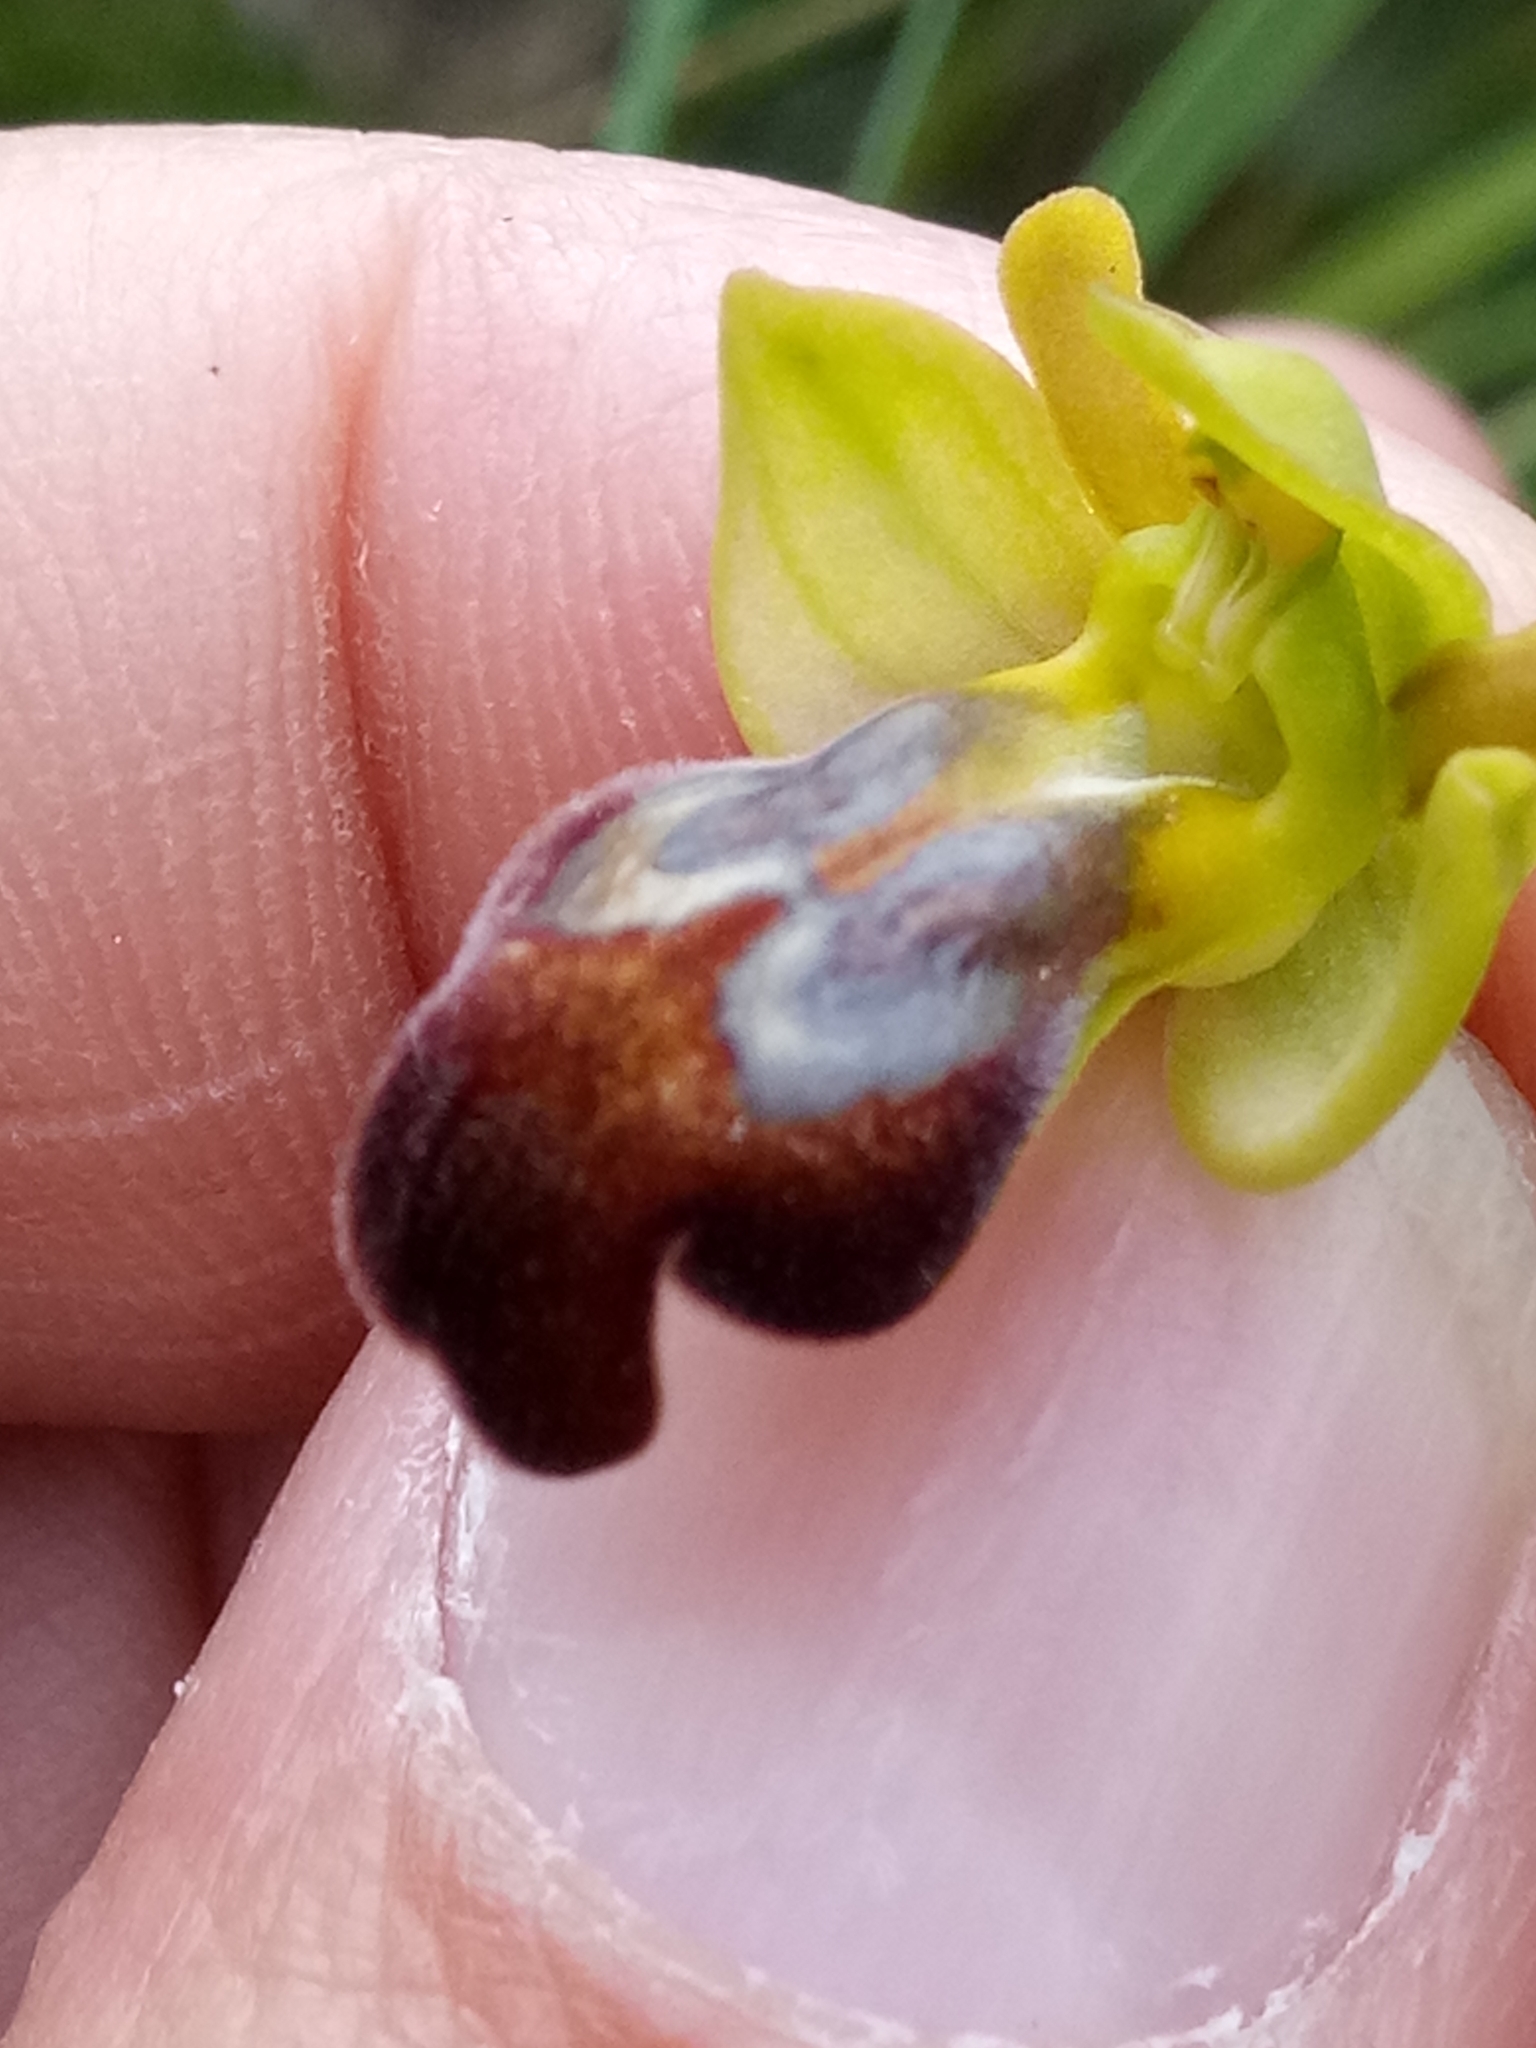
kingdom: Plantae
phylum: Tracheophyta
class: Liliopsida
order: Asparagales
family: Orchidaceae
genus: Ophrys
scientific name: Ophrys fusca
